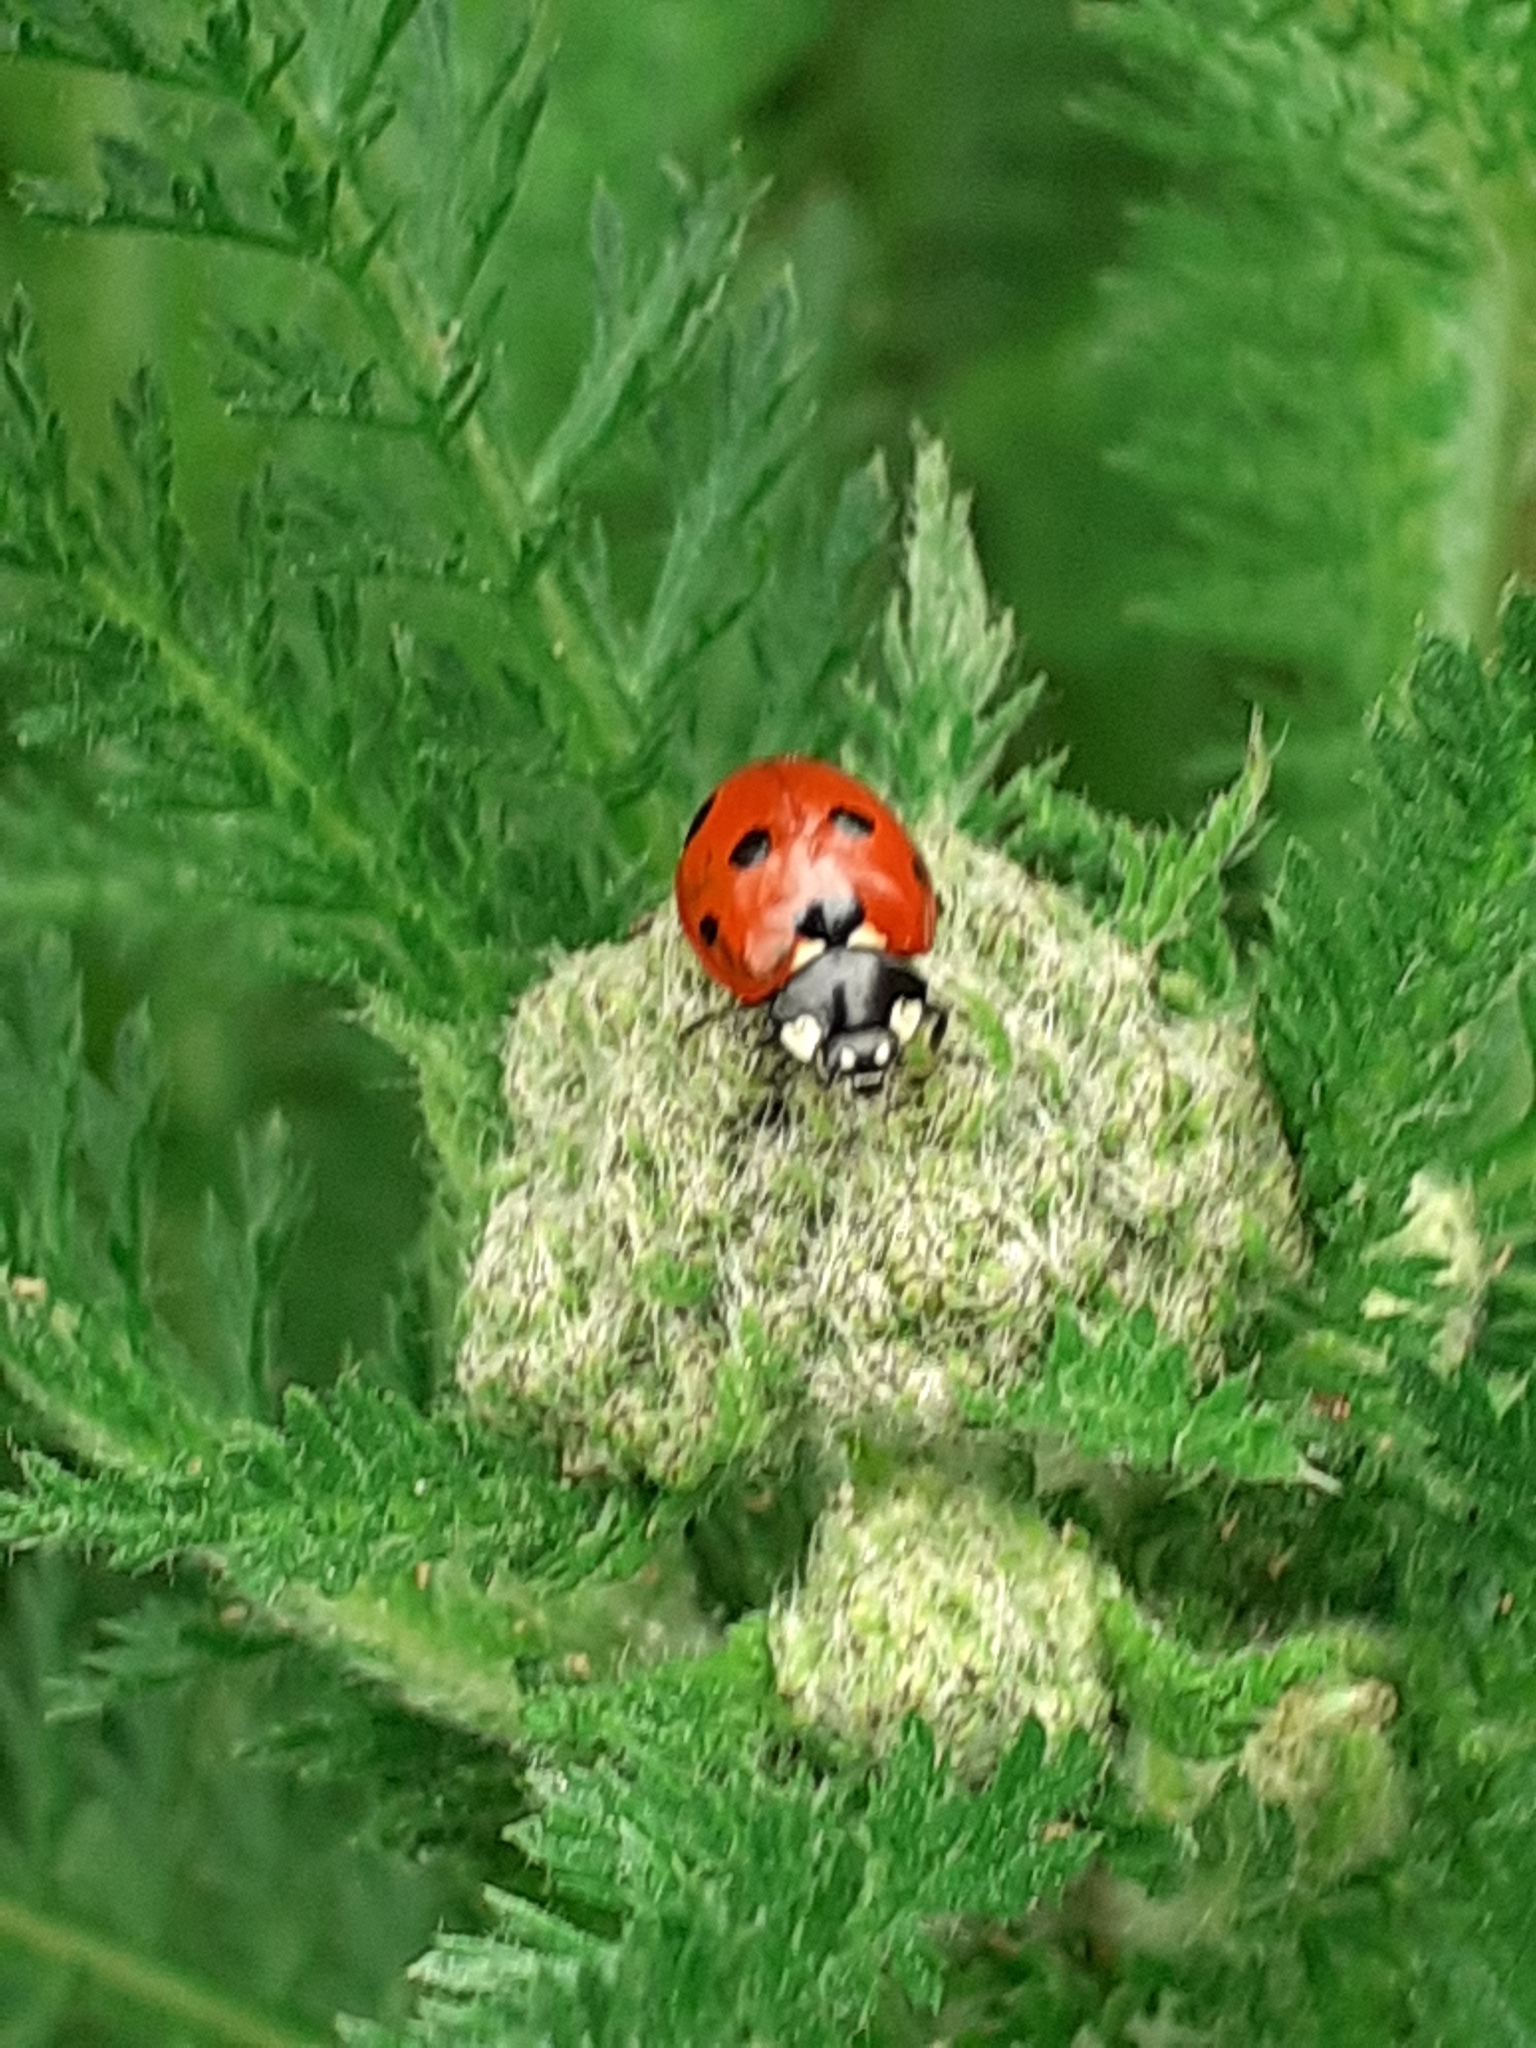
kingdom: Animalia
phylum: Arthropoda
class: Insecta
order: Coleoptera
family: Coccinellidae
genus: Coccinella
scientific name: Coccinella septempunctata
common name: Sevenspotted lady beetle
